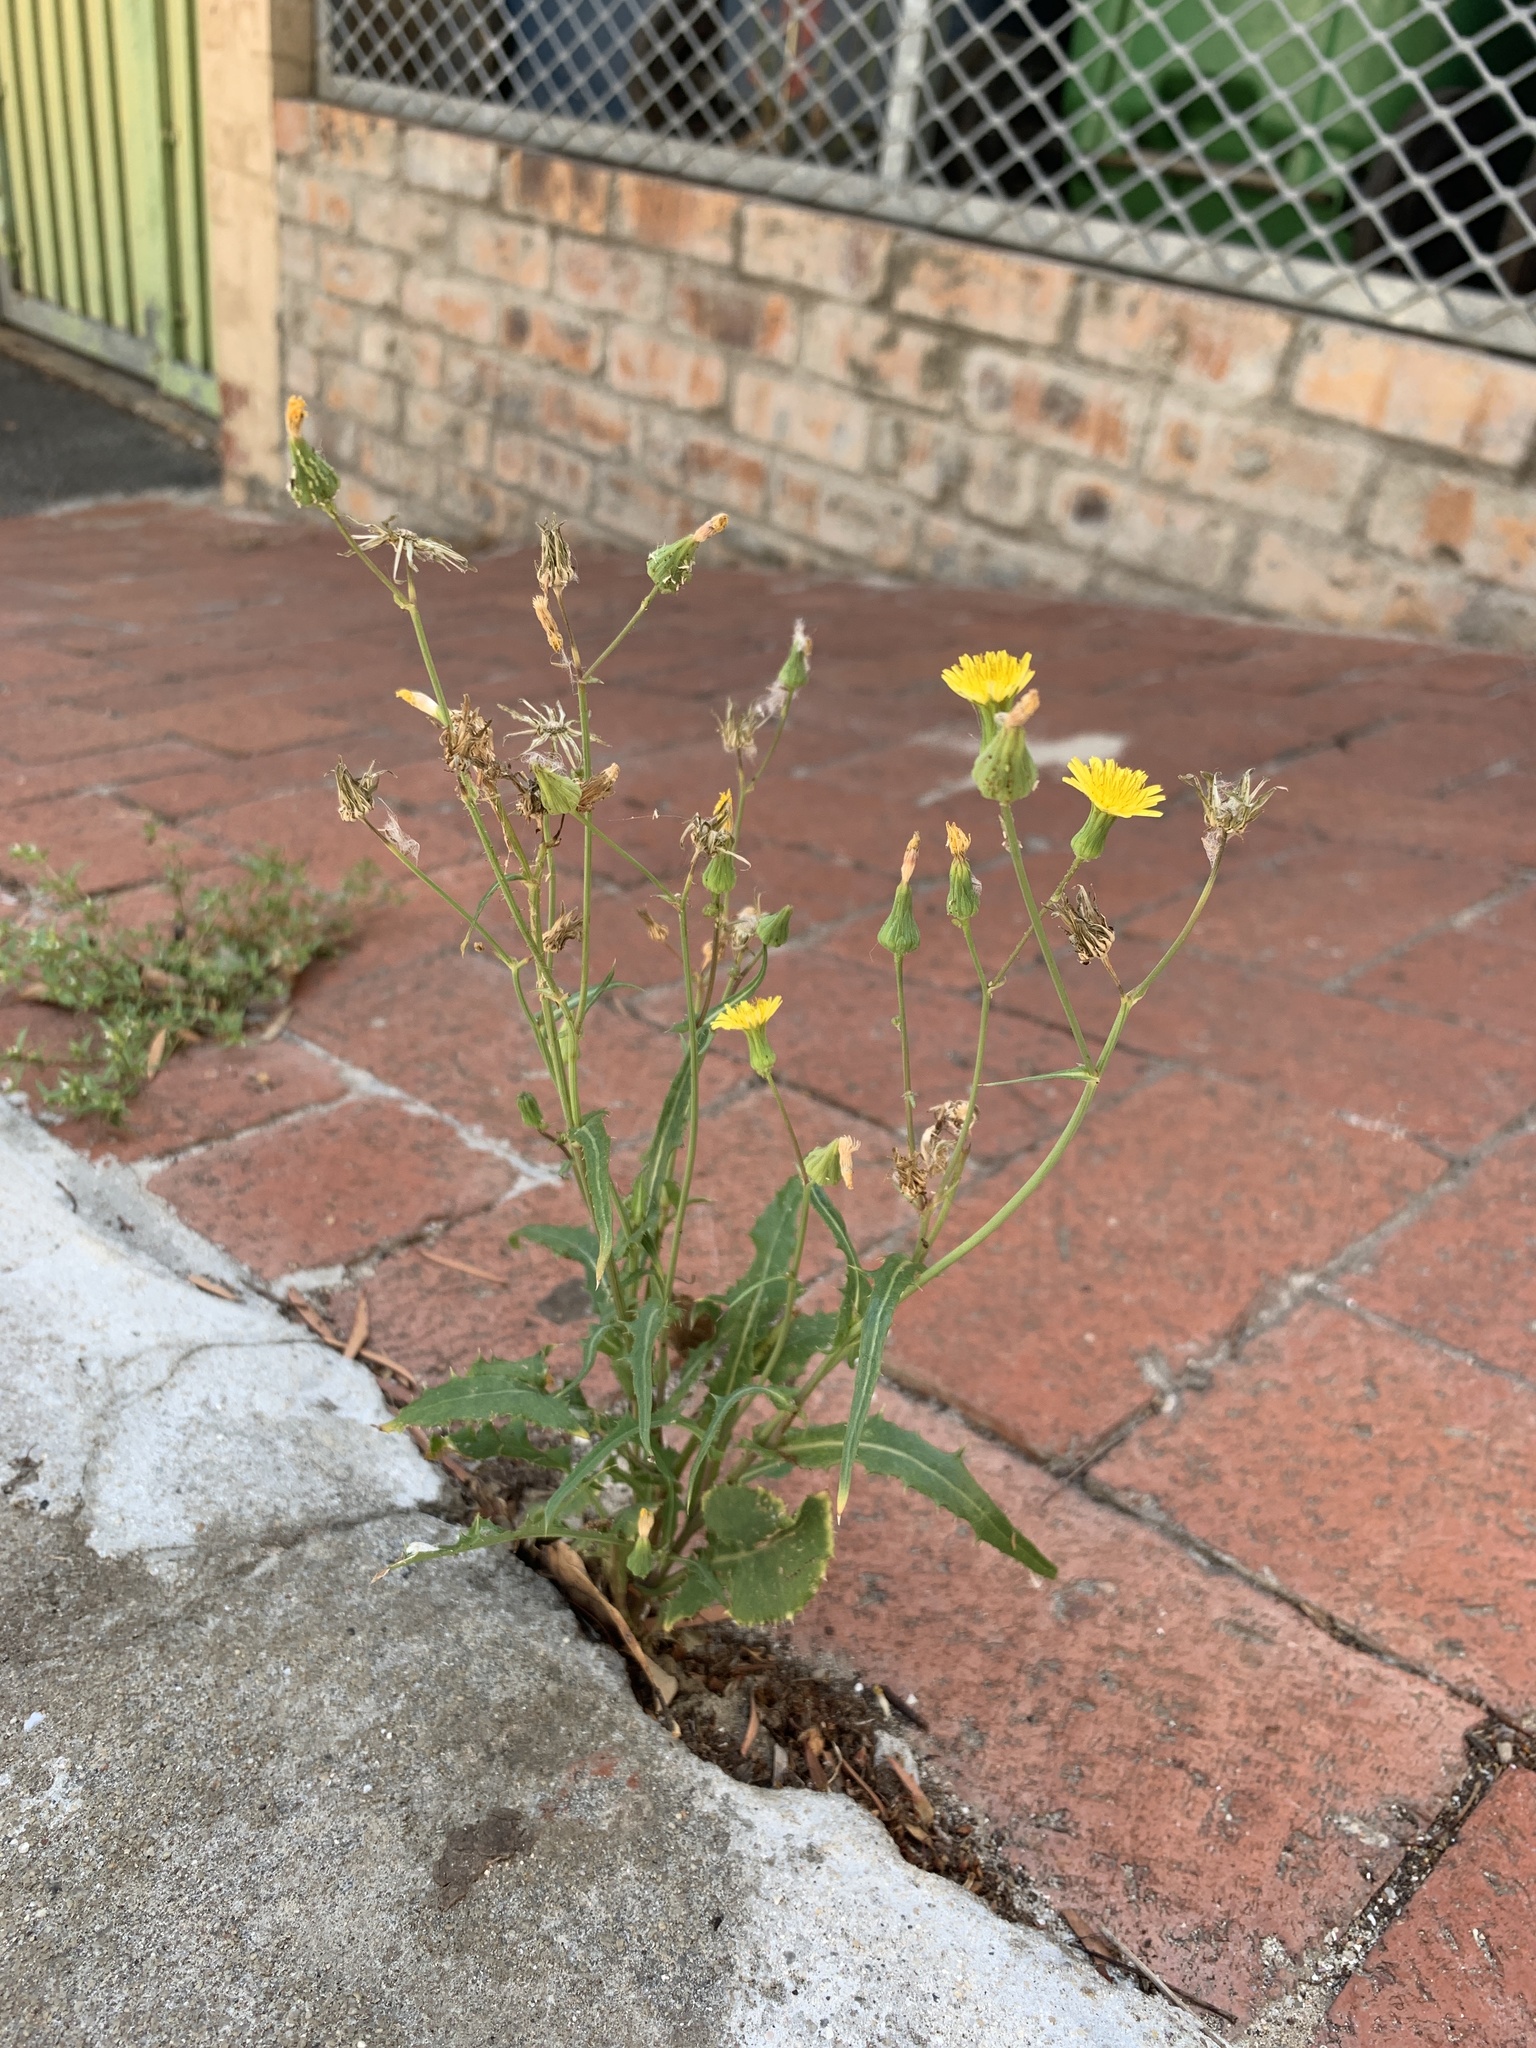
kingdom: Plantae
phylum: Tracheophyta
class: Magnoliopsida
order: Asterales
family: Asteraceae
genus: Lactuca
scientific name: Lactuca serriola
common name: Prickly lettuce
